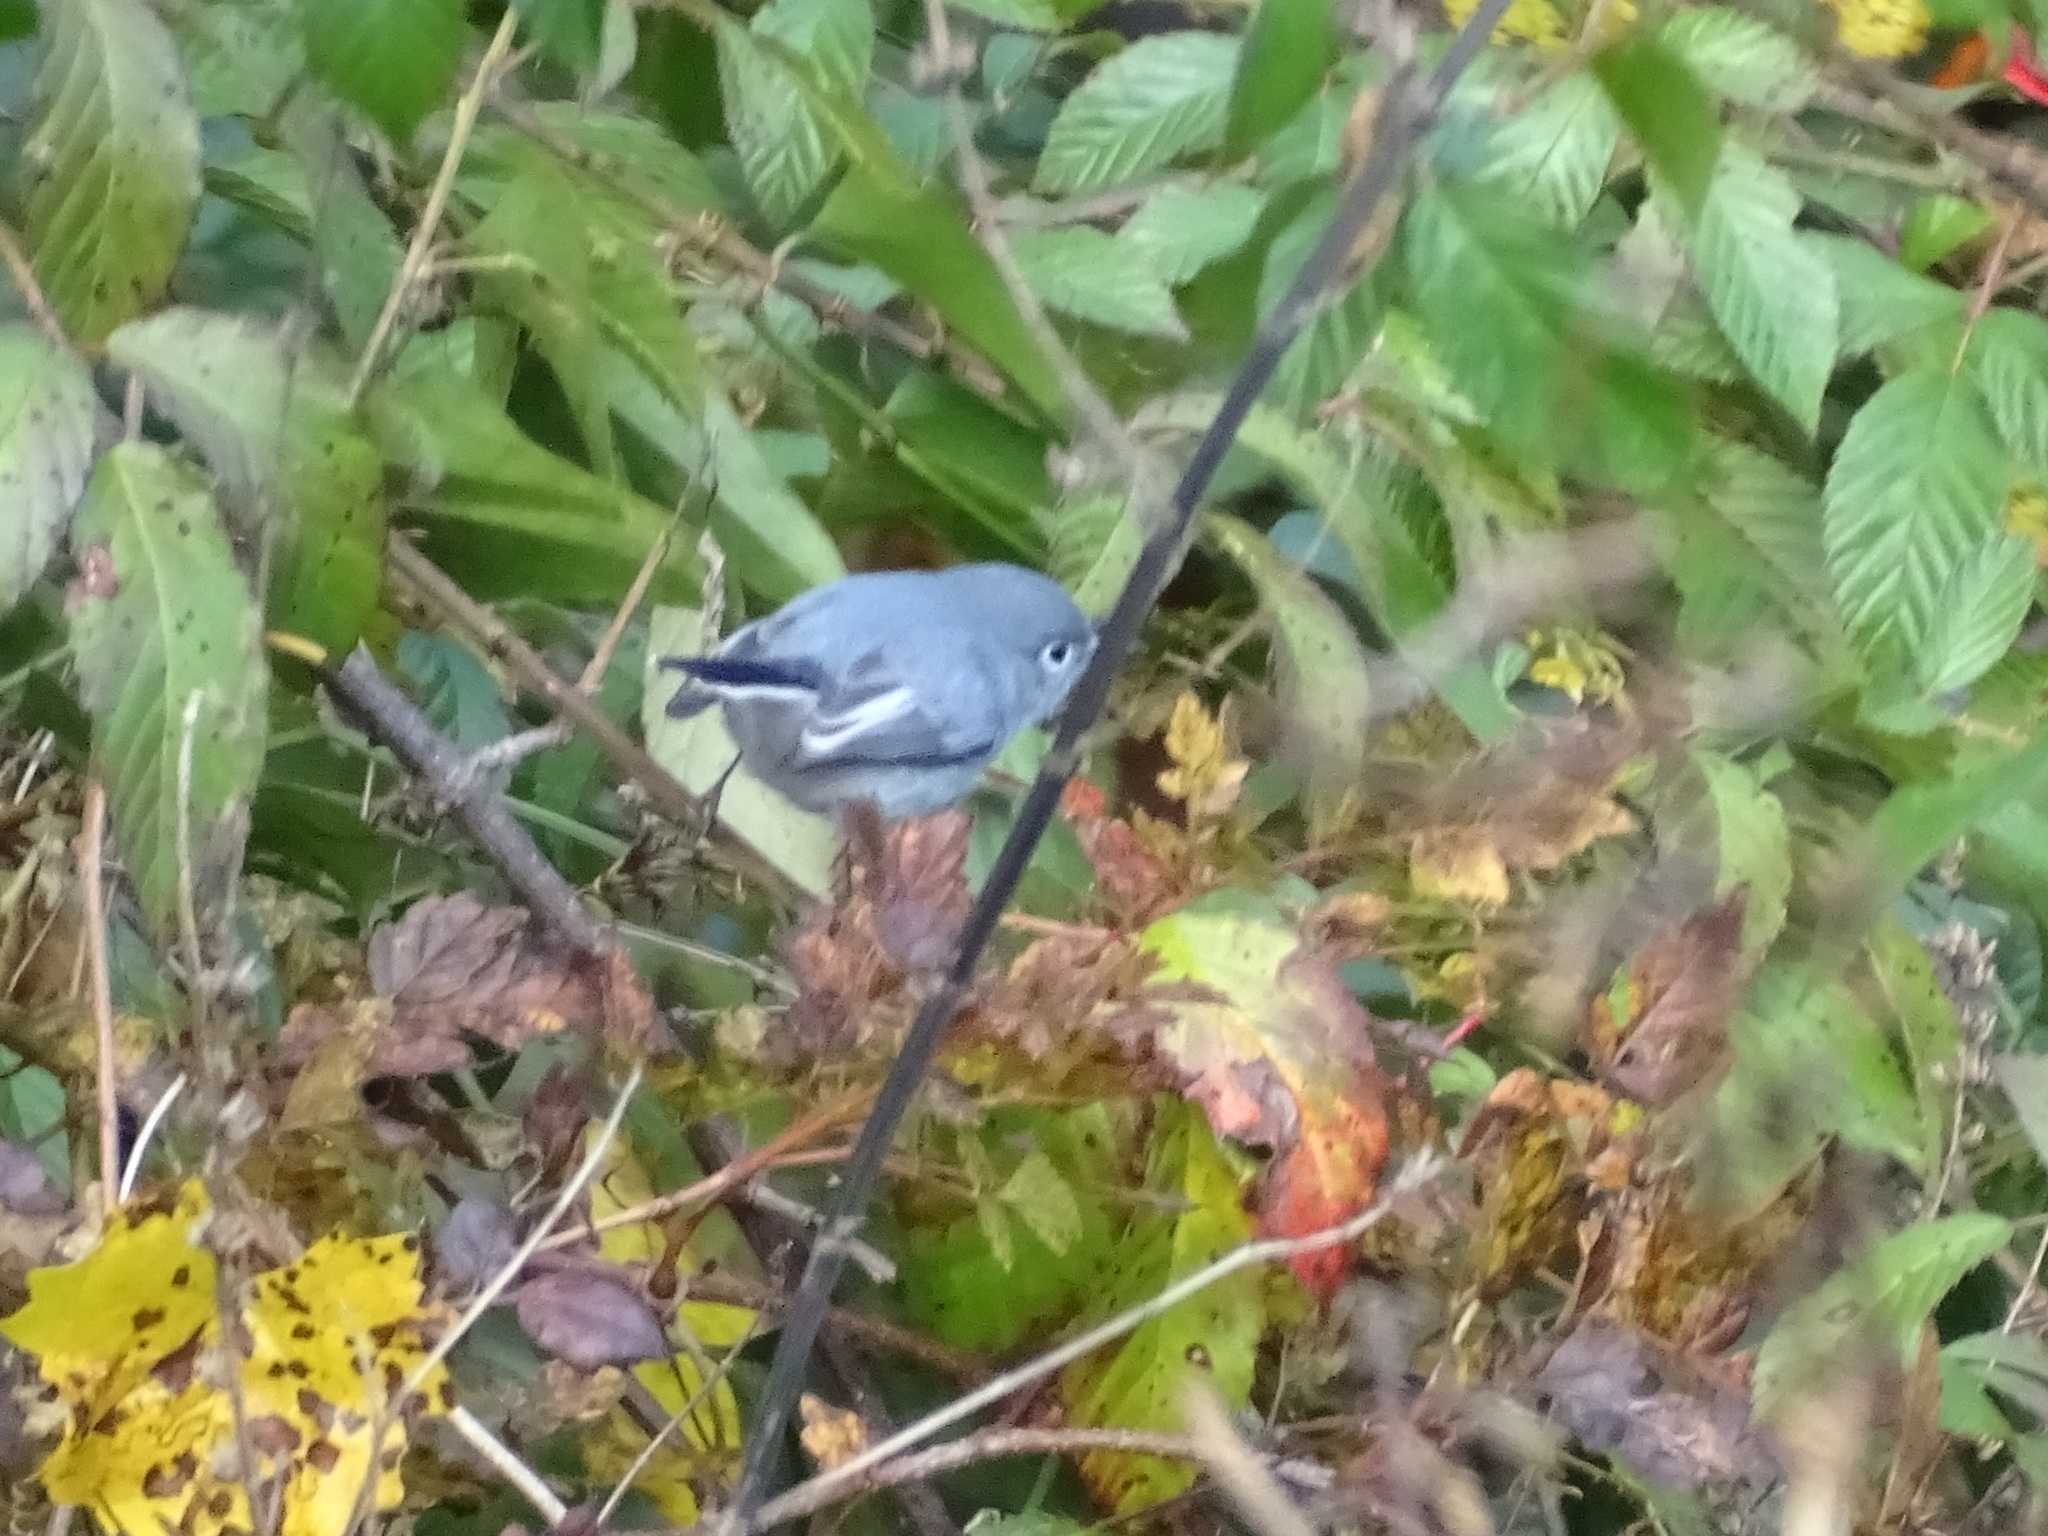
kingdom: Animalia
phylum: Chordata
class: Aves
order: Passeriformes
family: Polioptilidae
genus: Polioptila
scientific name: Polioptila caerulea
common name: Blue-gray gnatcatcher
